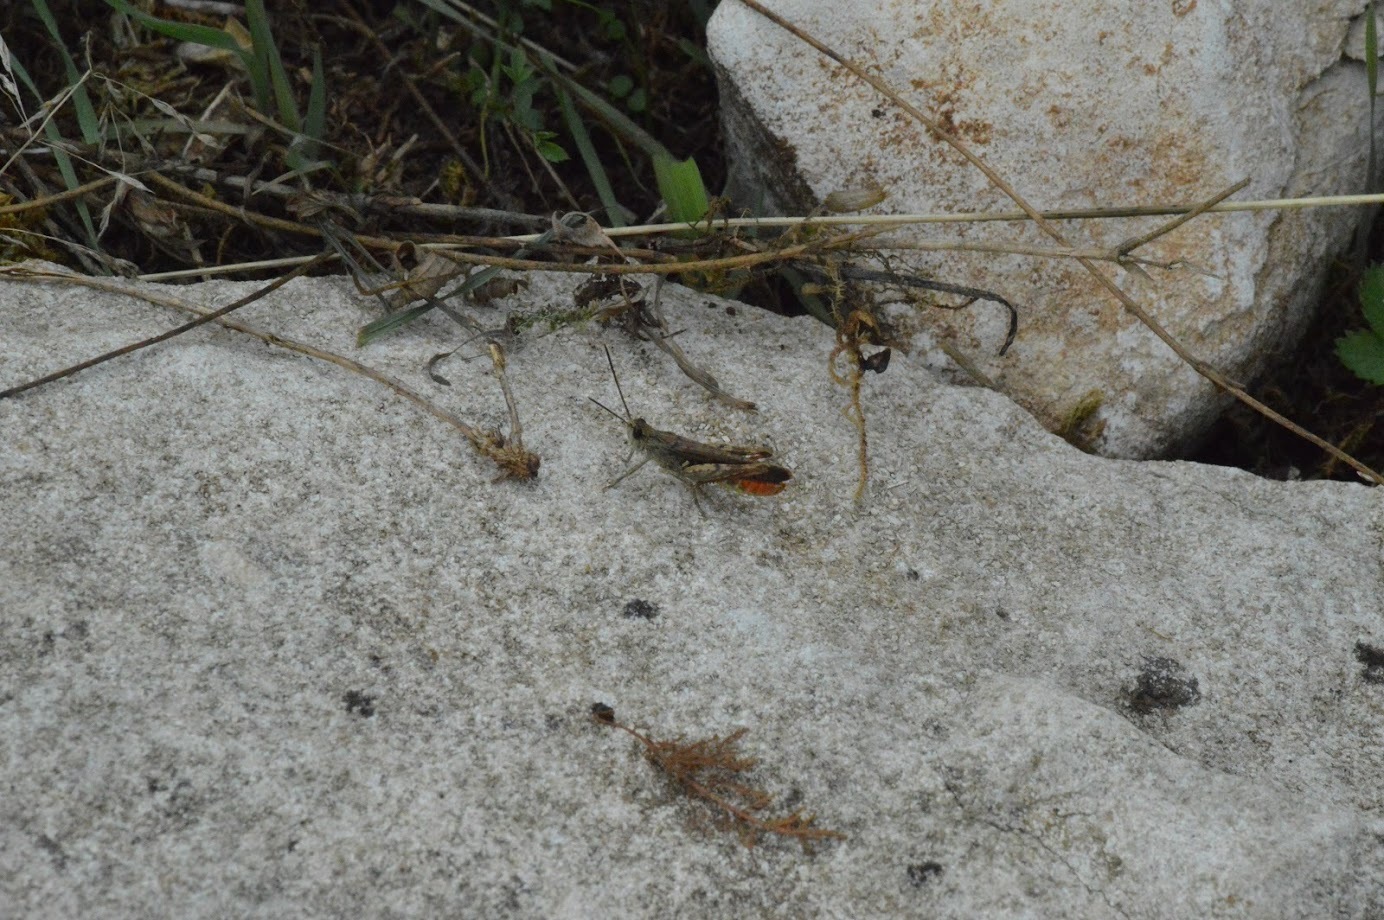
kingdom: Animalia
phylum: Arthropoda
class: Insecta
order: Orthoptera
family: Acrididae
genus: Chorthippus
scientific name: Chorthippus brunneus
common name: Field grasshopper
